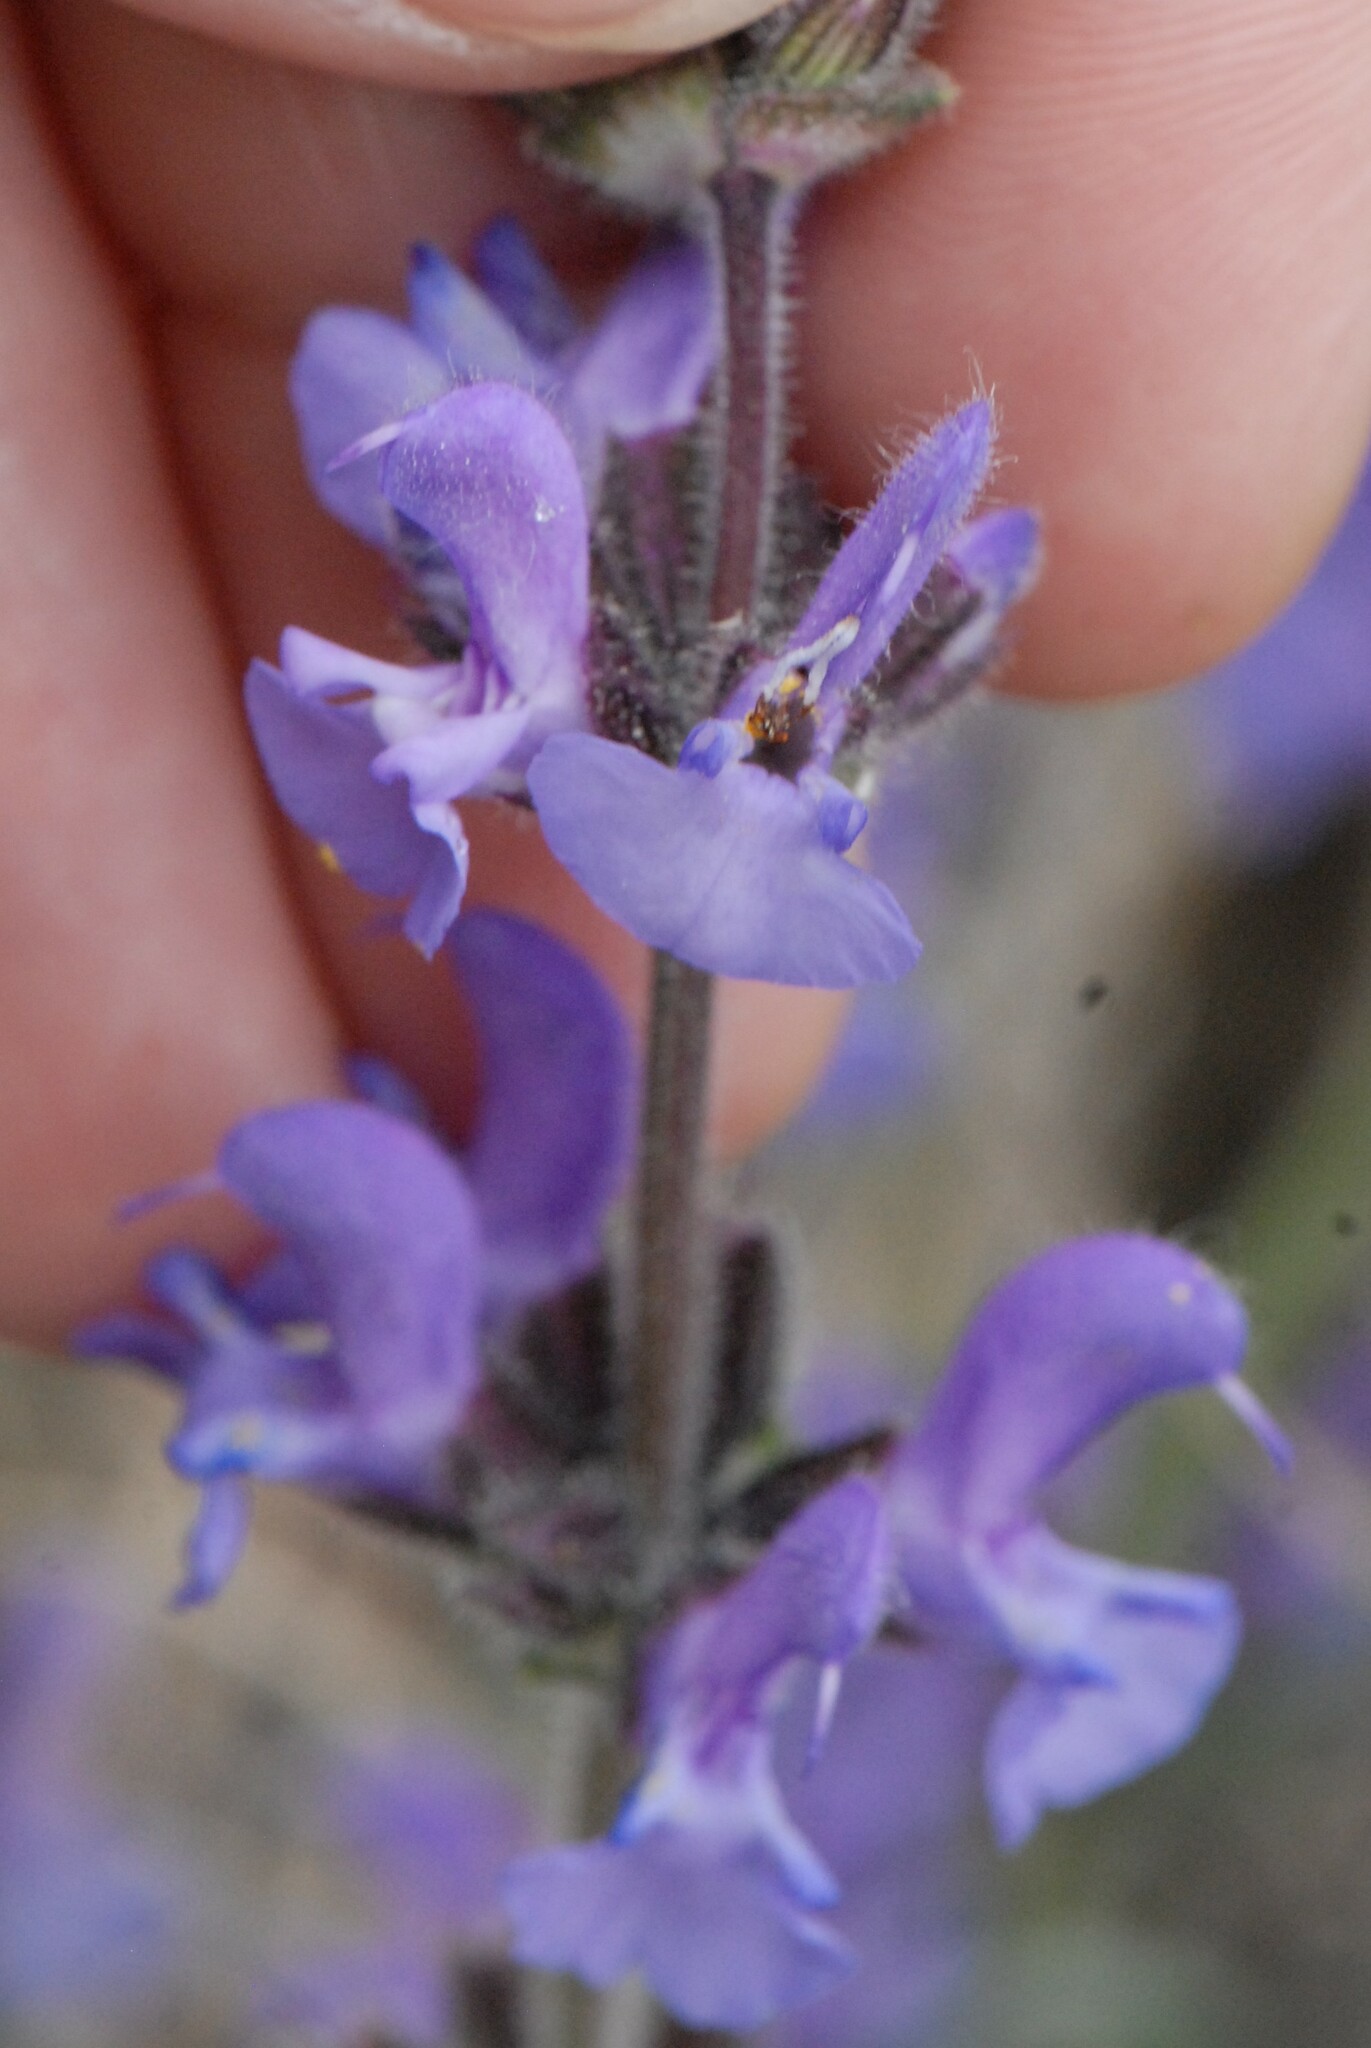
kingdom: Plantae
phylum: Tracheophyta
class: Magnoliopsida
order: Lamiales
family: Lamiaceae
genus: Salvia
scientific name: Salvia canescens
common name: Hoary salvia
